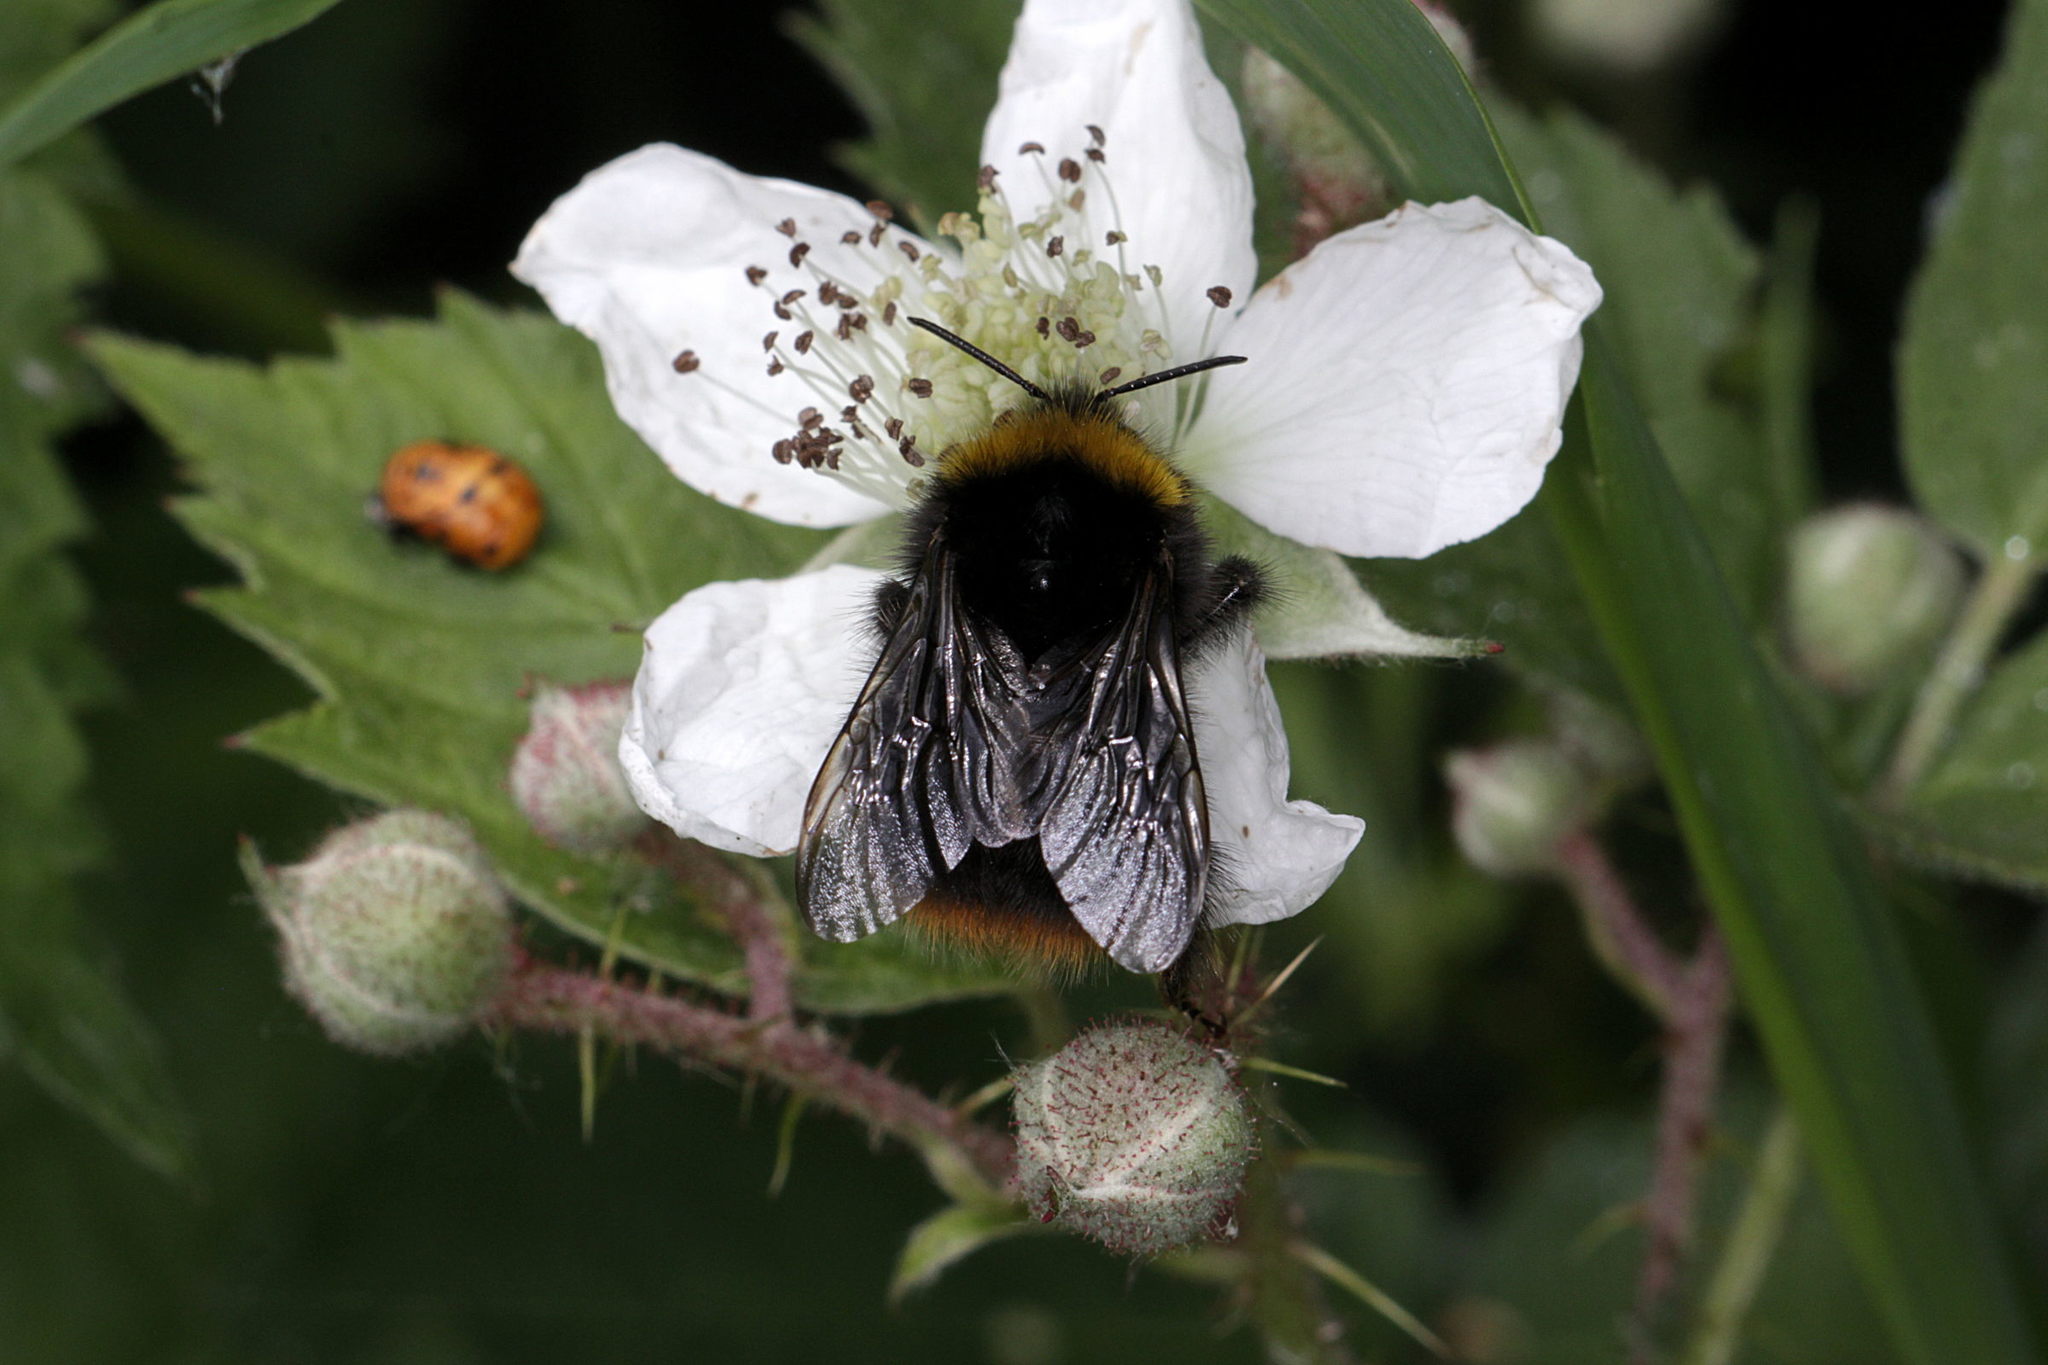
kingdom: Animalia
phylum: Arthropoda
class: Insecta
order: Hymenoptera
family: Apidae
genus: Bombus
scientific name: Bombus pratorum
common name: Early humble-bee
